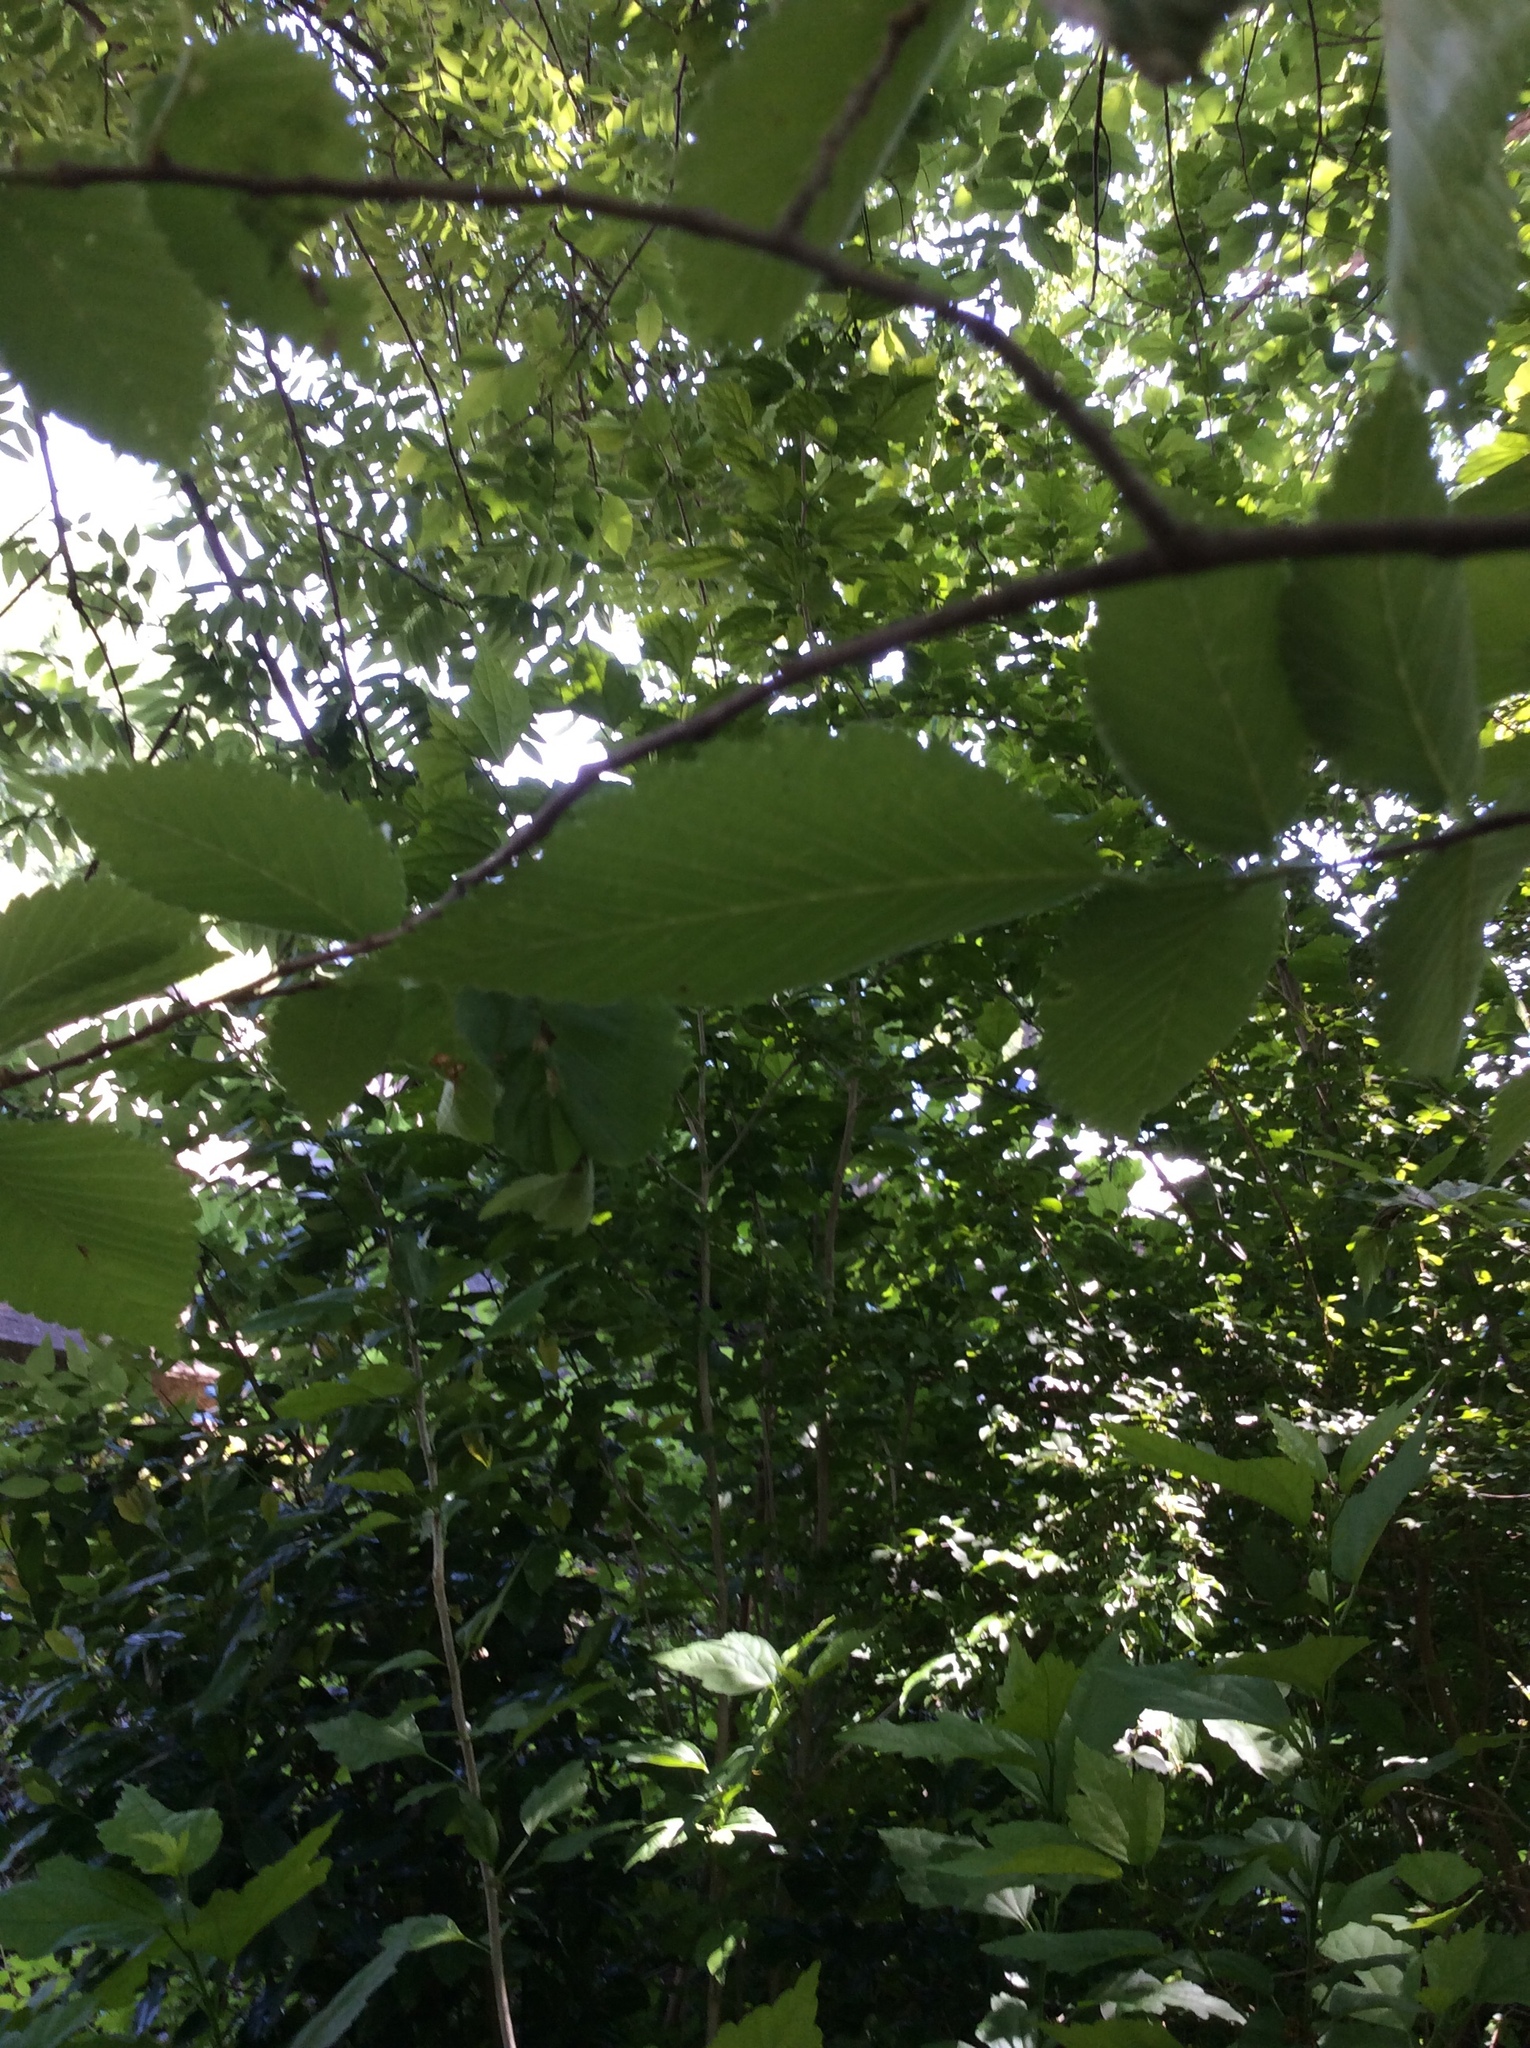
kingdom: Plantae
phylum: Tracheophyta
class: Magnoliopsida
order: Rosales
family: Ulmaceae
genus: Ulmus
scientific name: Ulmus americana
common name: American elm
